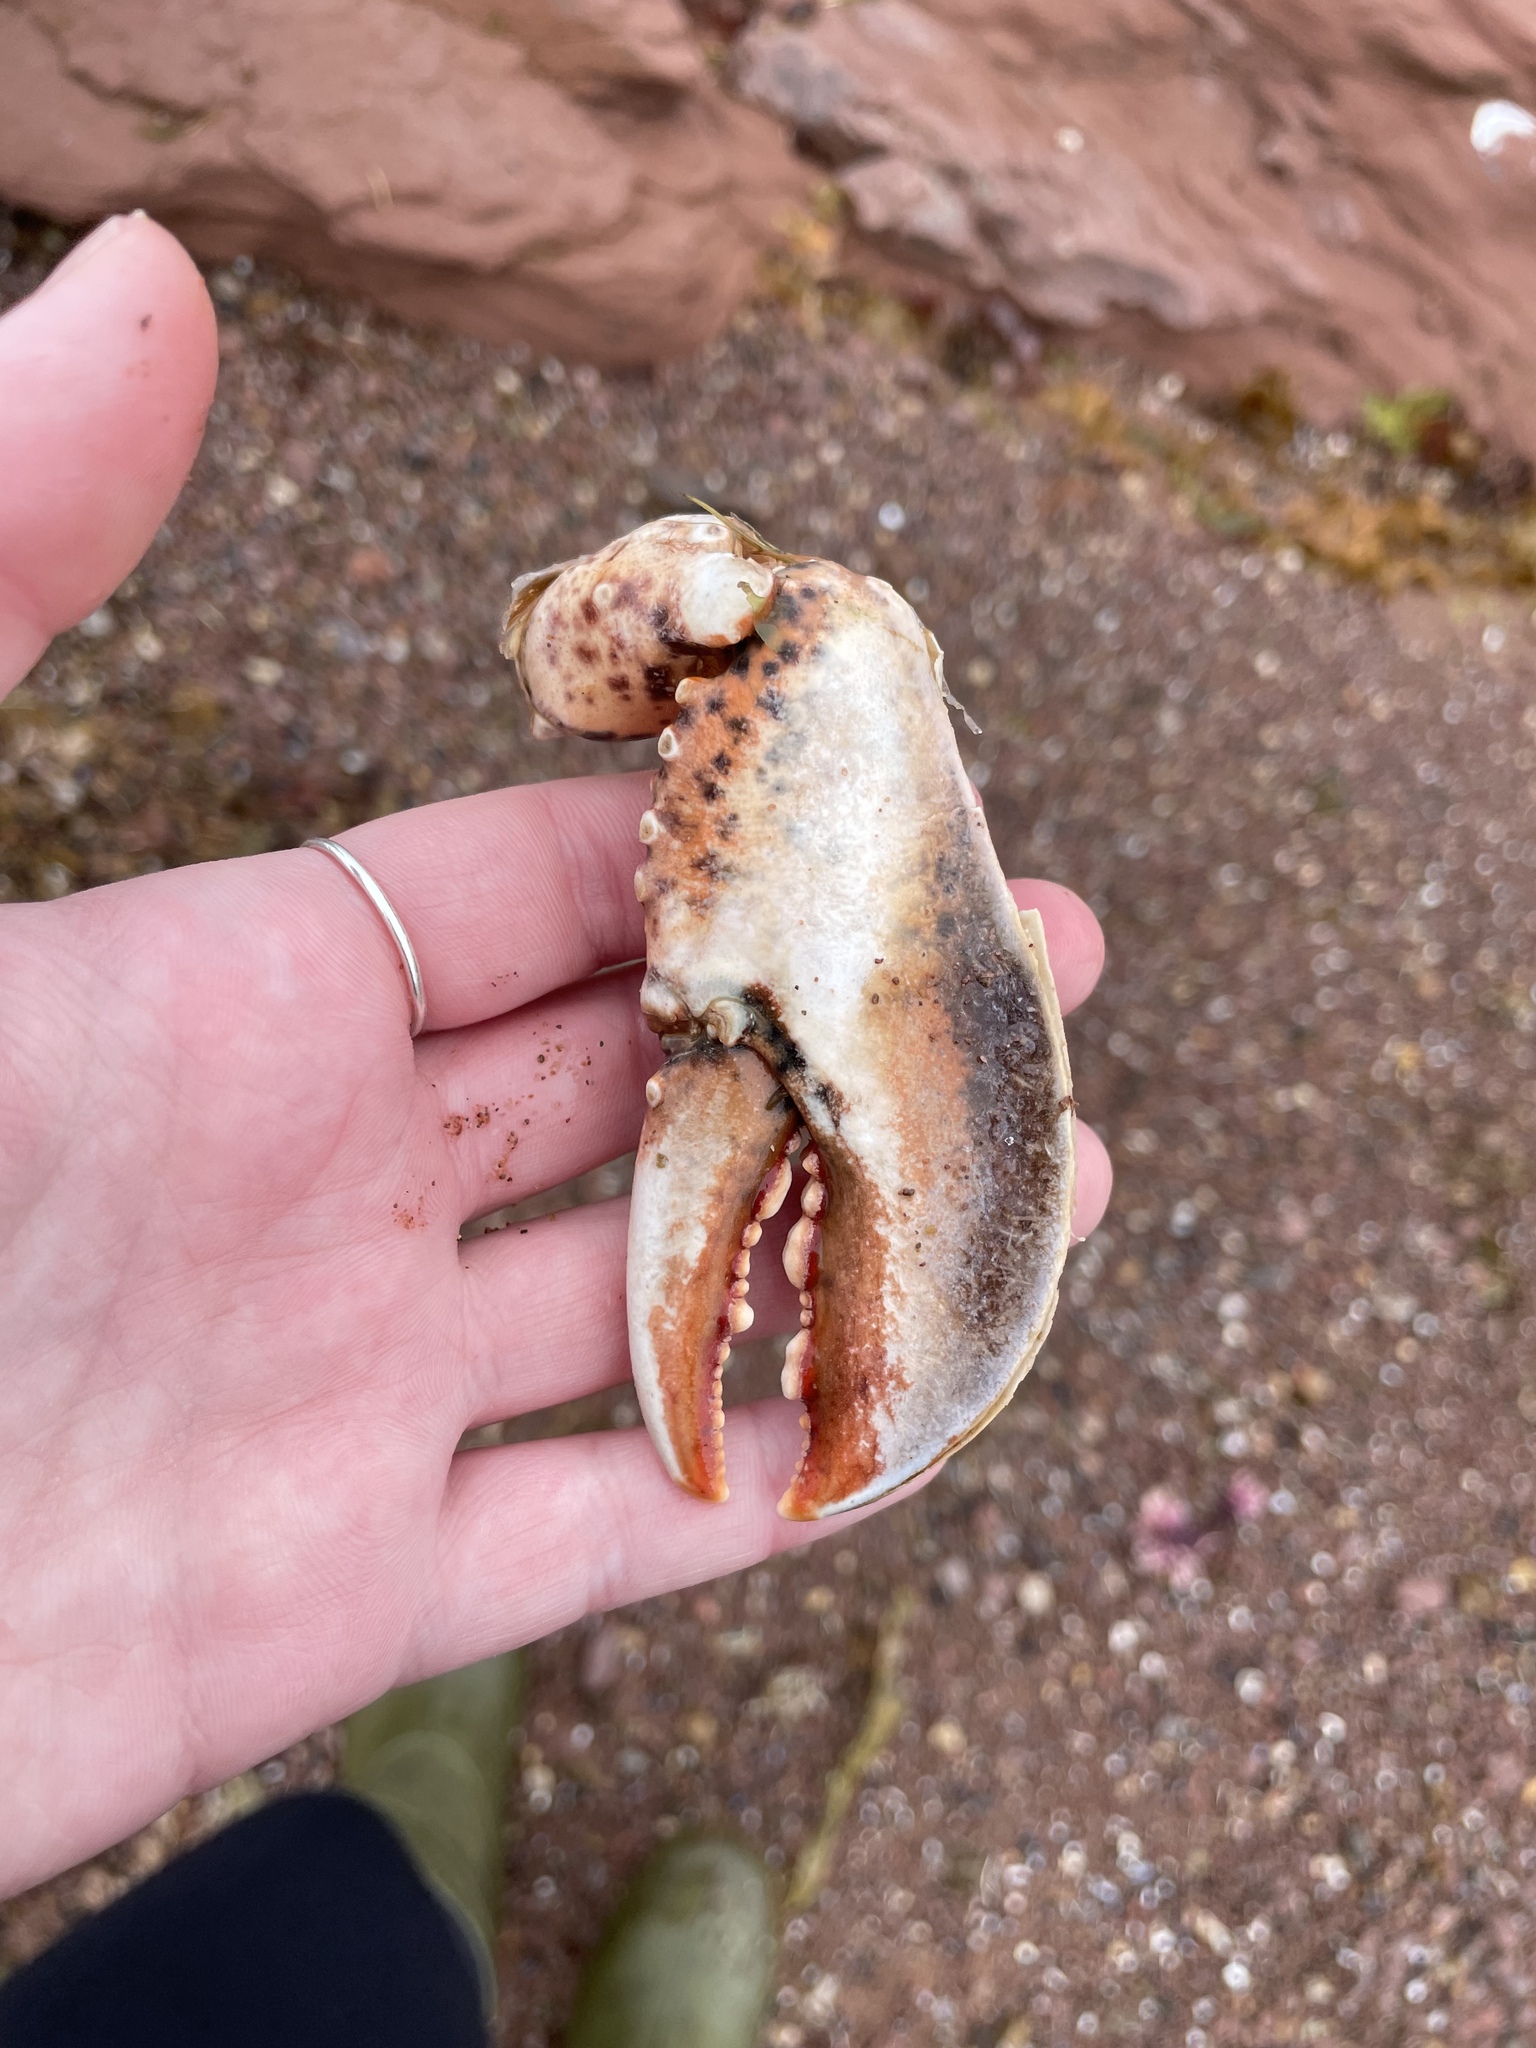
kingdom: Animalia
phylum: Arthropoda
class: Malacostraca
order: Decapoda
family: Nephropidae
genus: Homarus
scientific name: Homarus americanus
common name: American lobster
